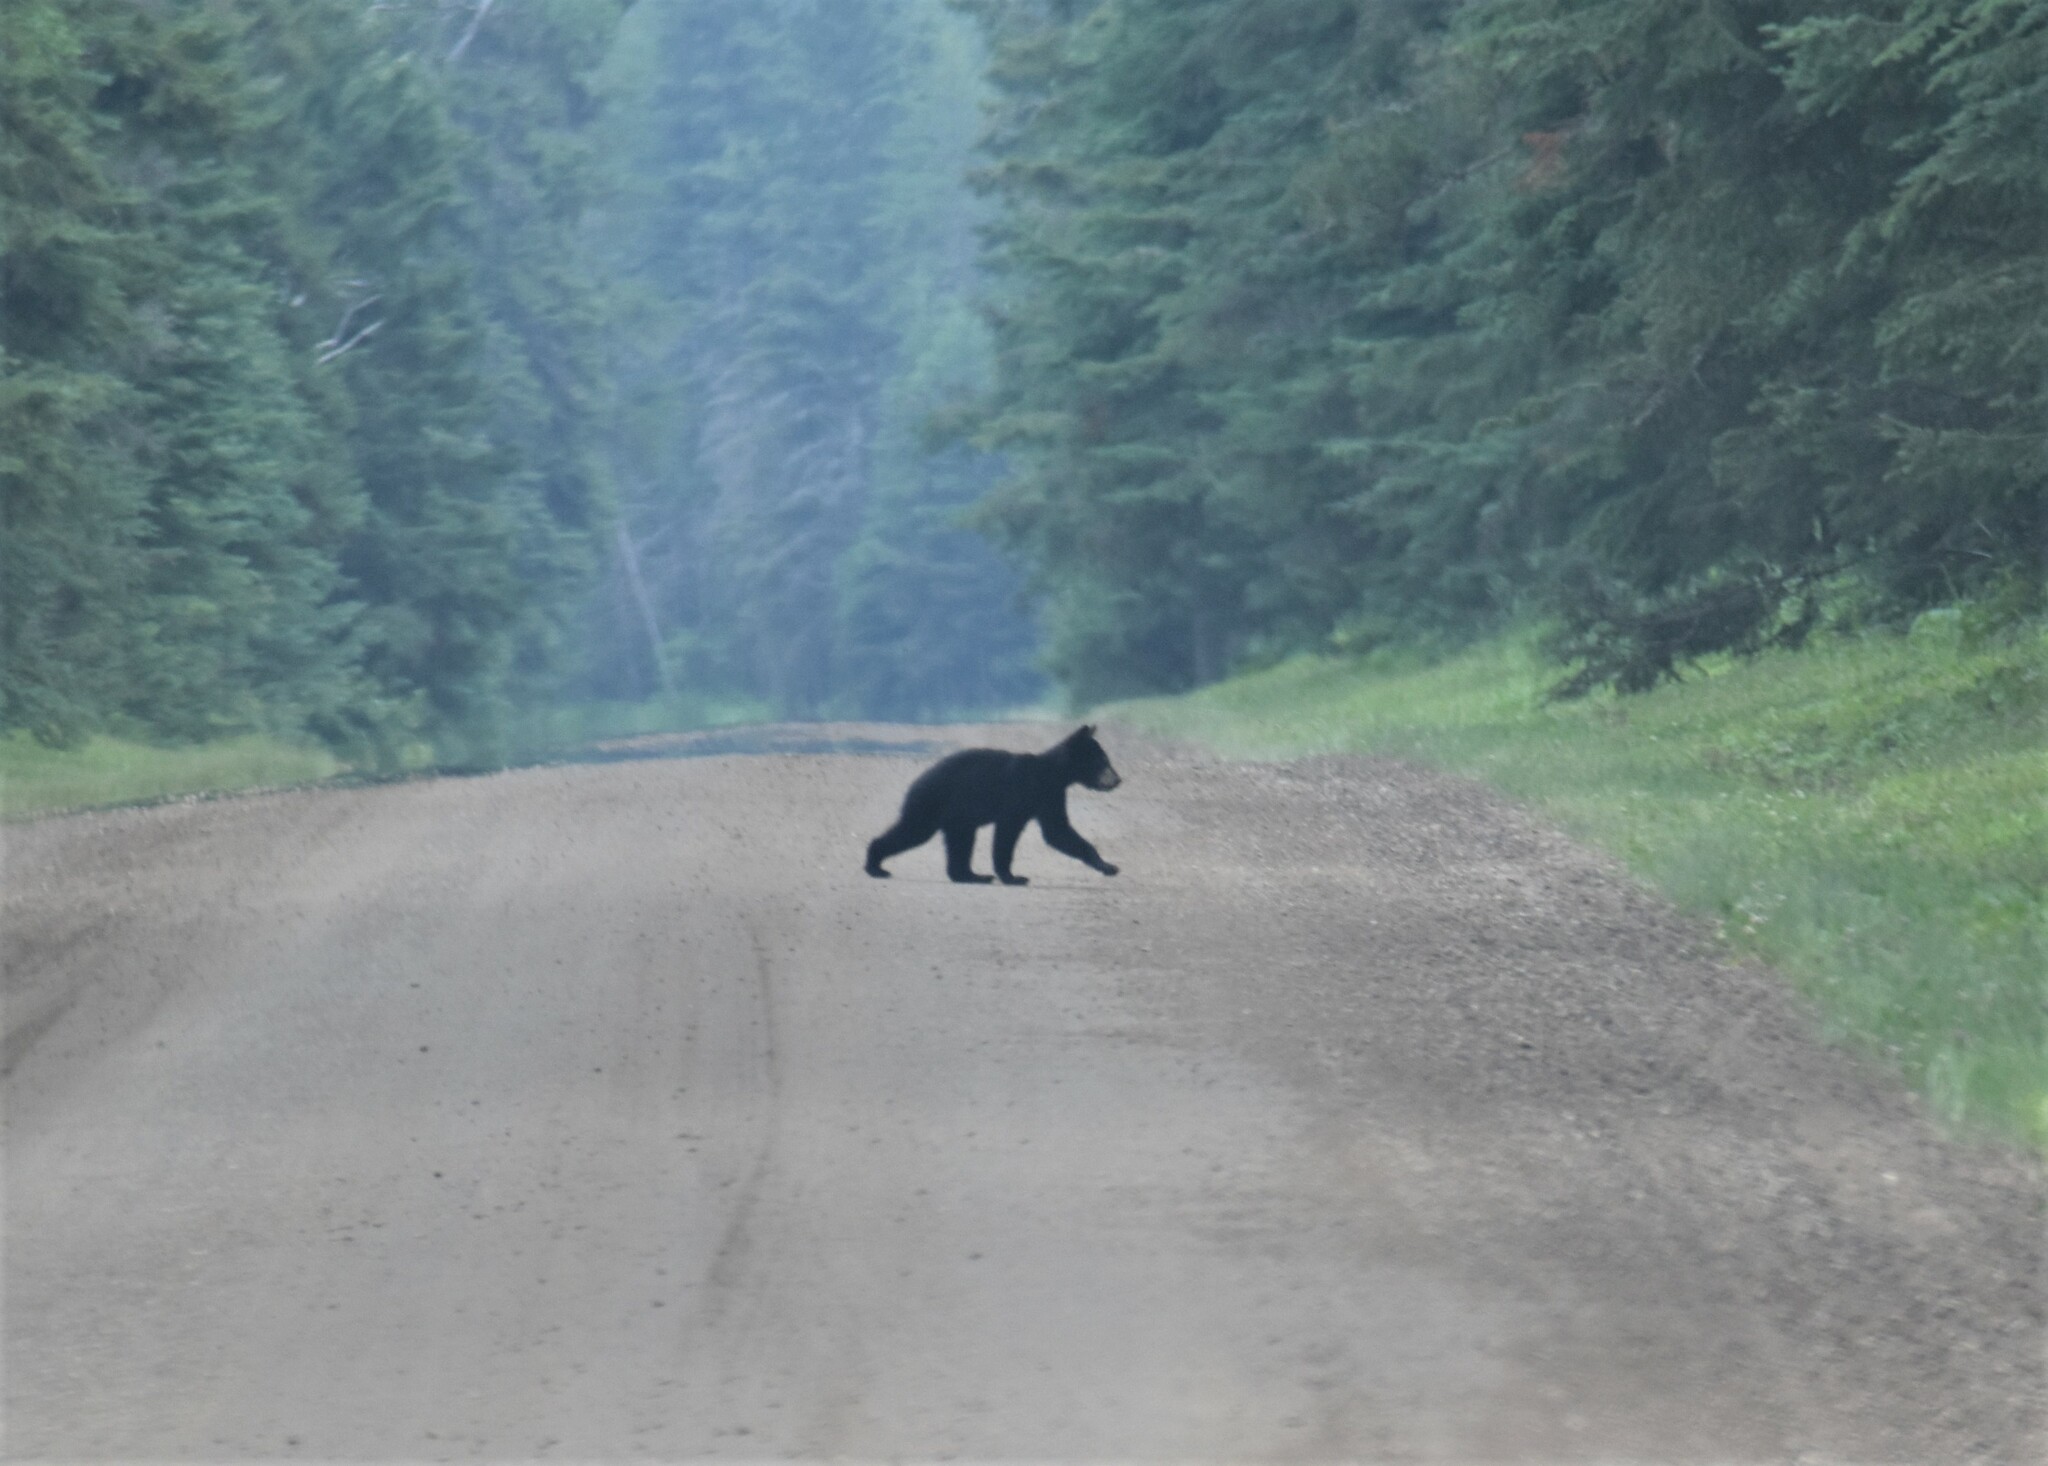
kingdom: Animalia
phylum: Chordata
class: Mammalia
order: Carnivora
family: Ursidae
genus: Ursus
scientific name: Ursus americanus
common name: American black bear
